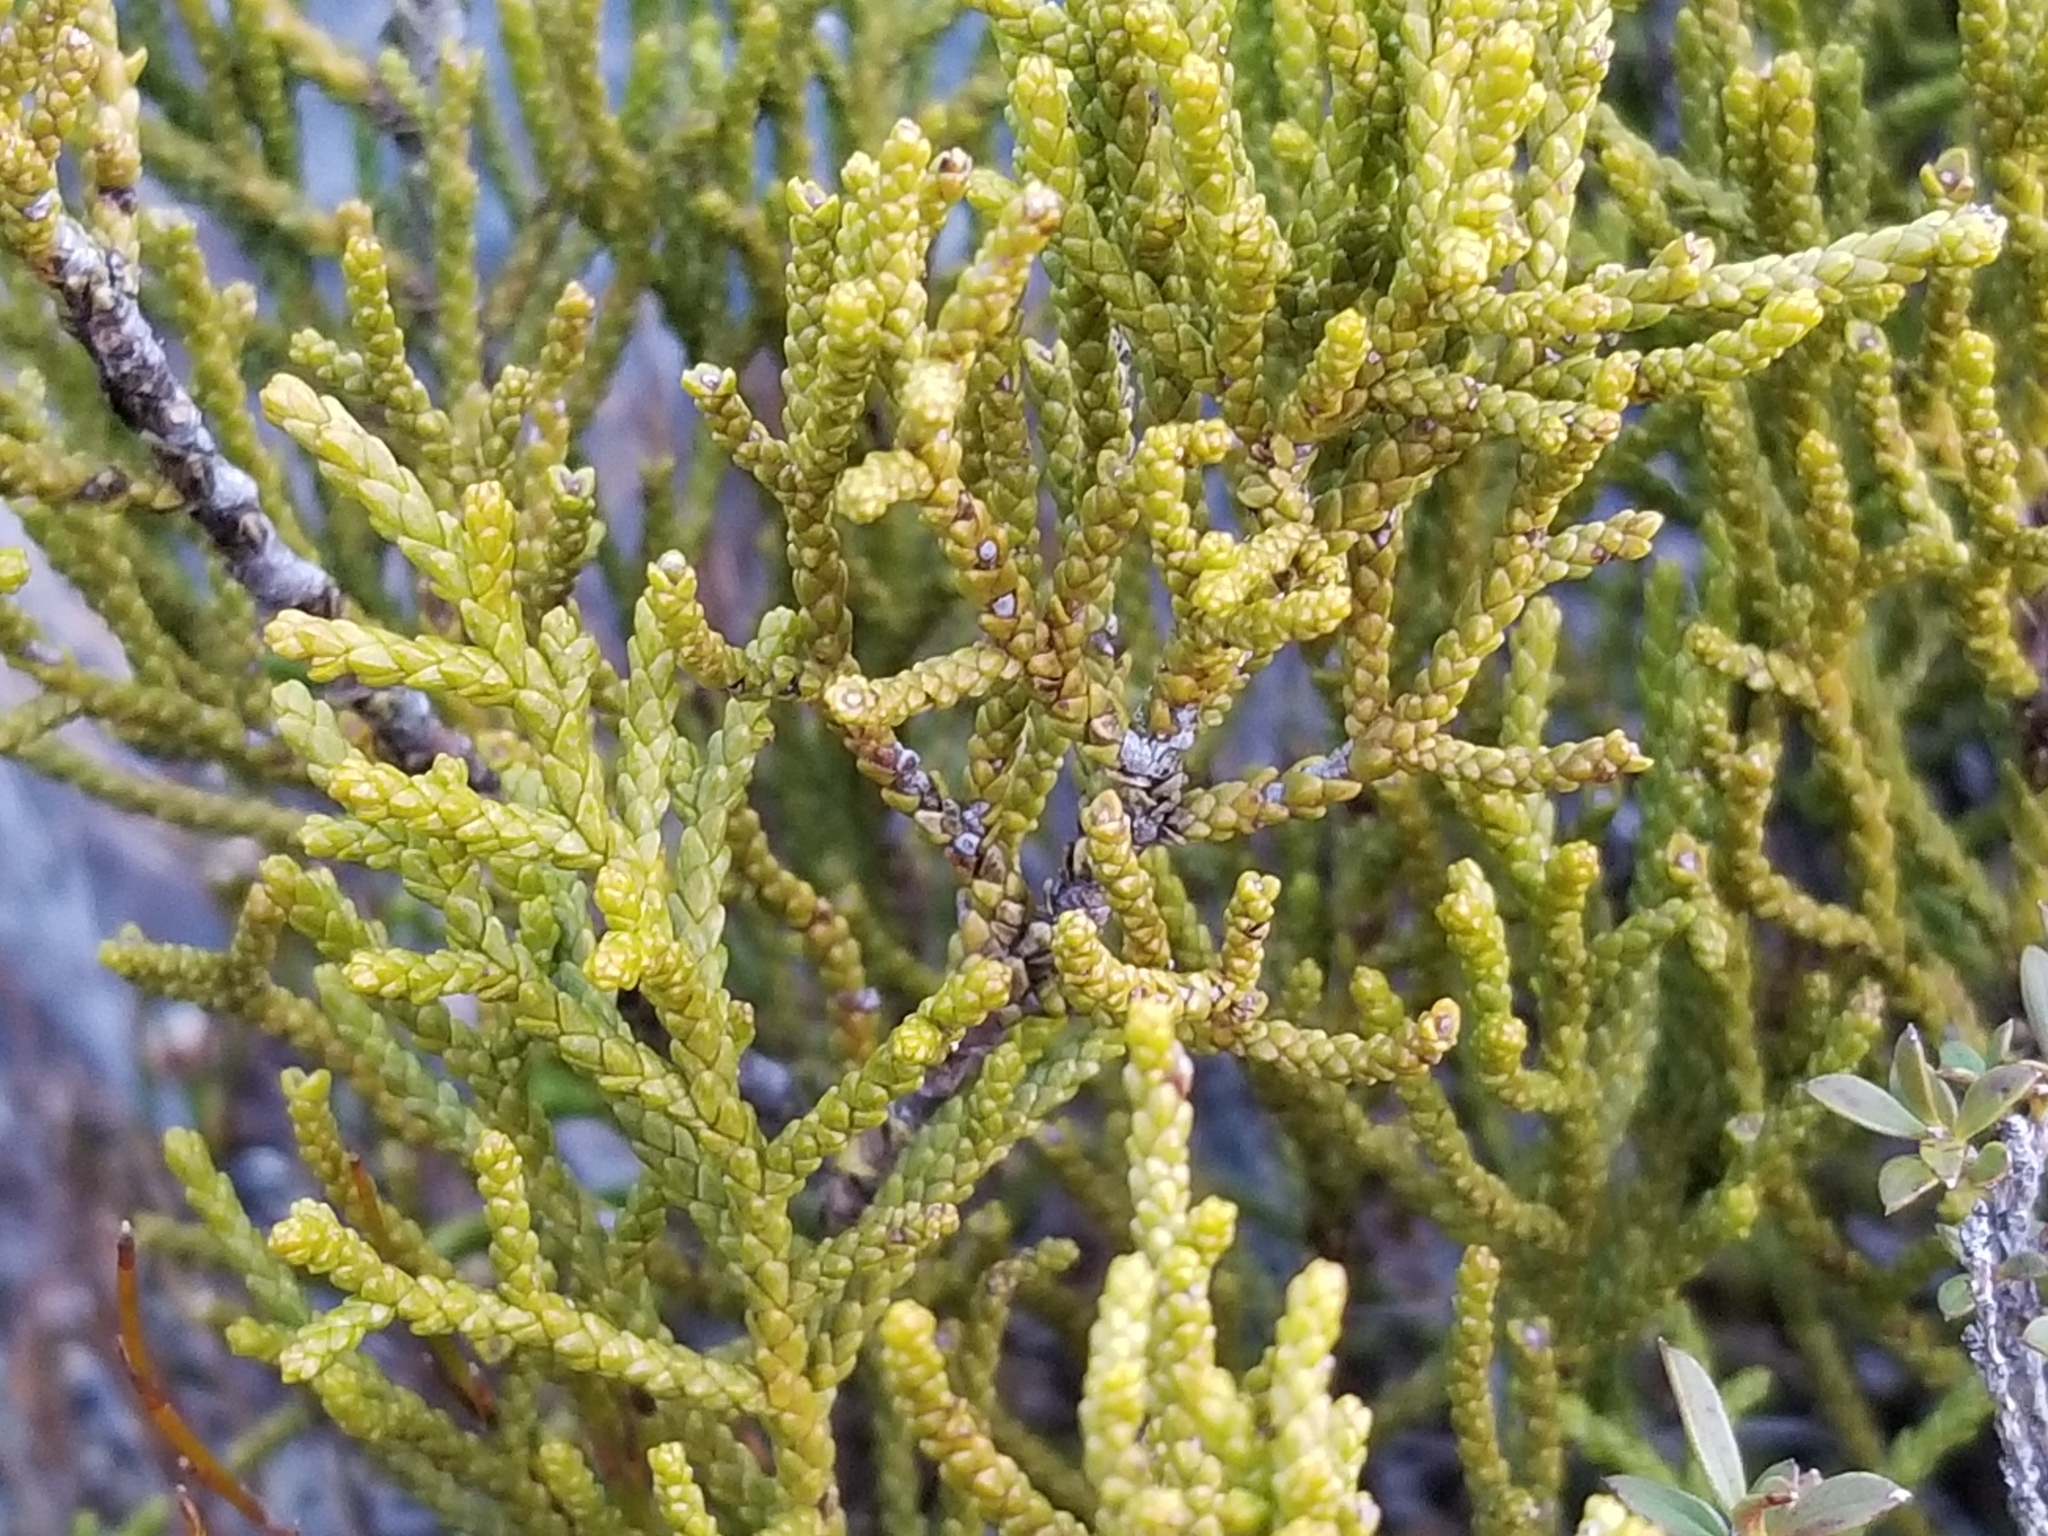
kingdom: Plantae
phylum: Tracheophyta
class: Pinopsida
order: Pinales
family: Podocarpaceae
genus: Lepidothamnus
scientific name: Lepidothamnus intermedius
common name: Yellow silver pine
